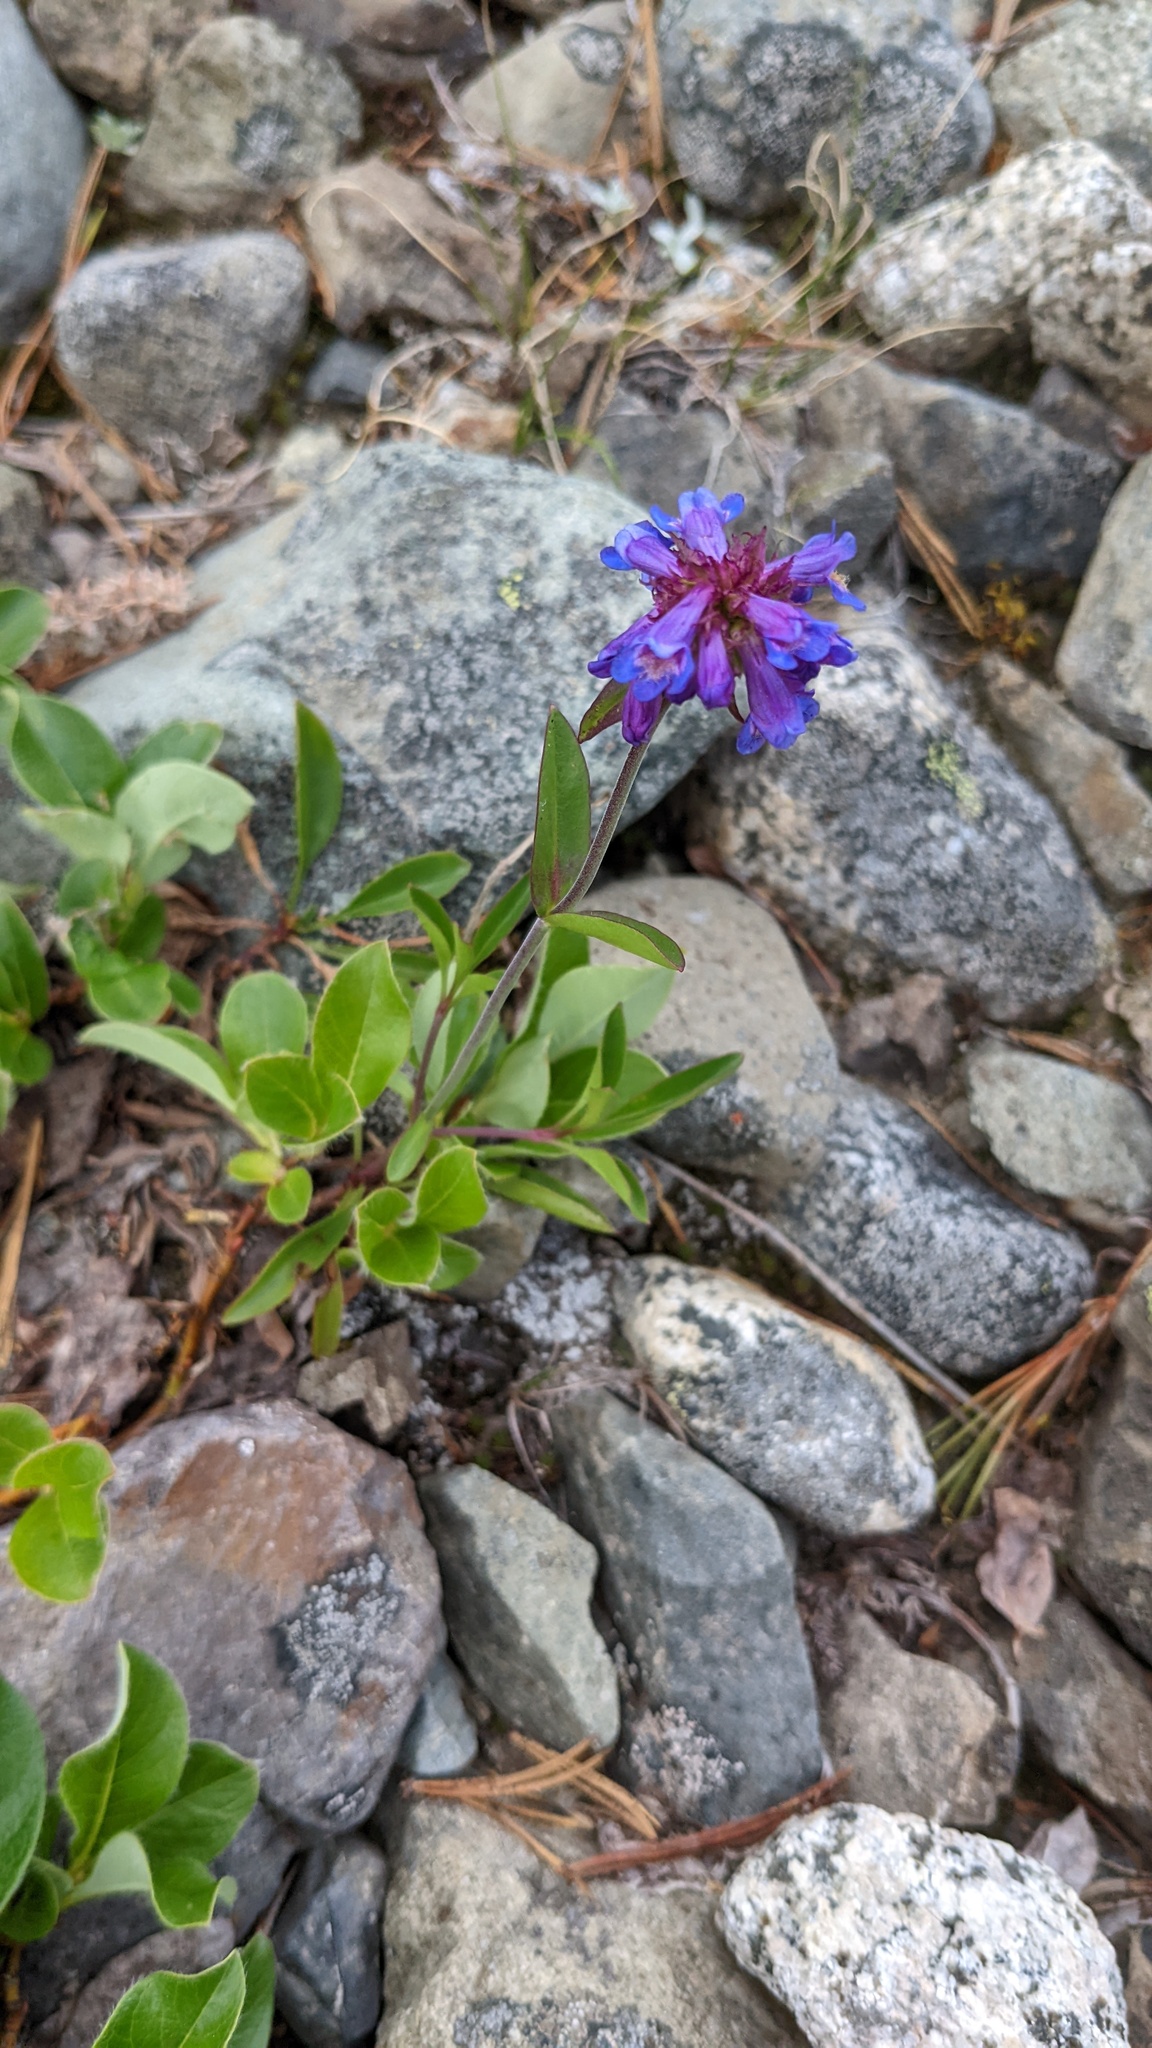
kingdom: Plantae
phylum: Tracheophyta
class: Magnoliopsida
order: Lamiales
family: Plantaginaceae
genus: Penstemon
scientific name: Penstemon procerus
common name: Small-flower penstemon
